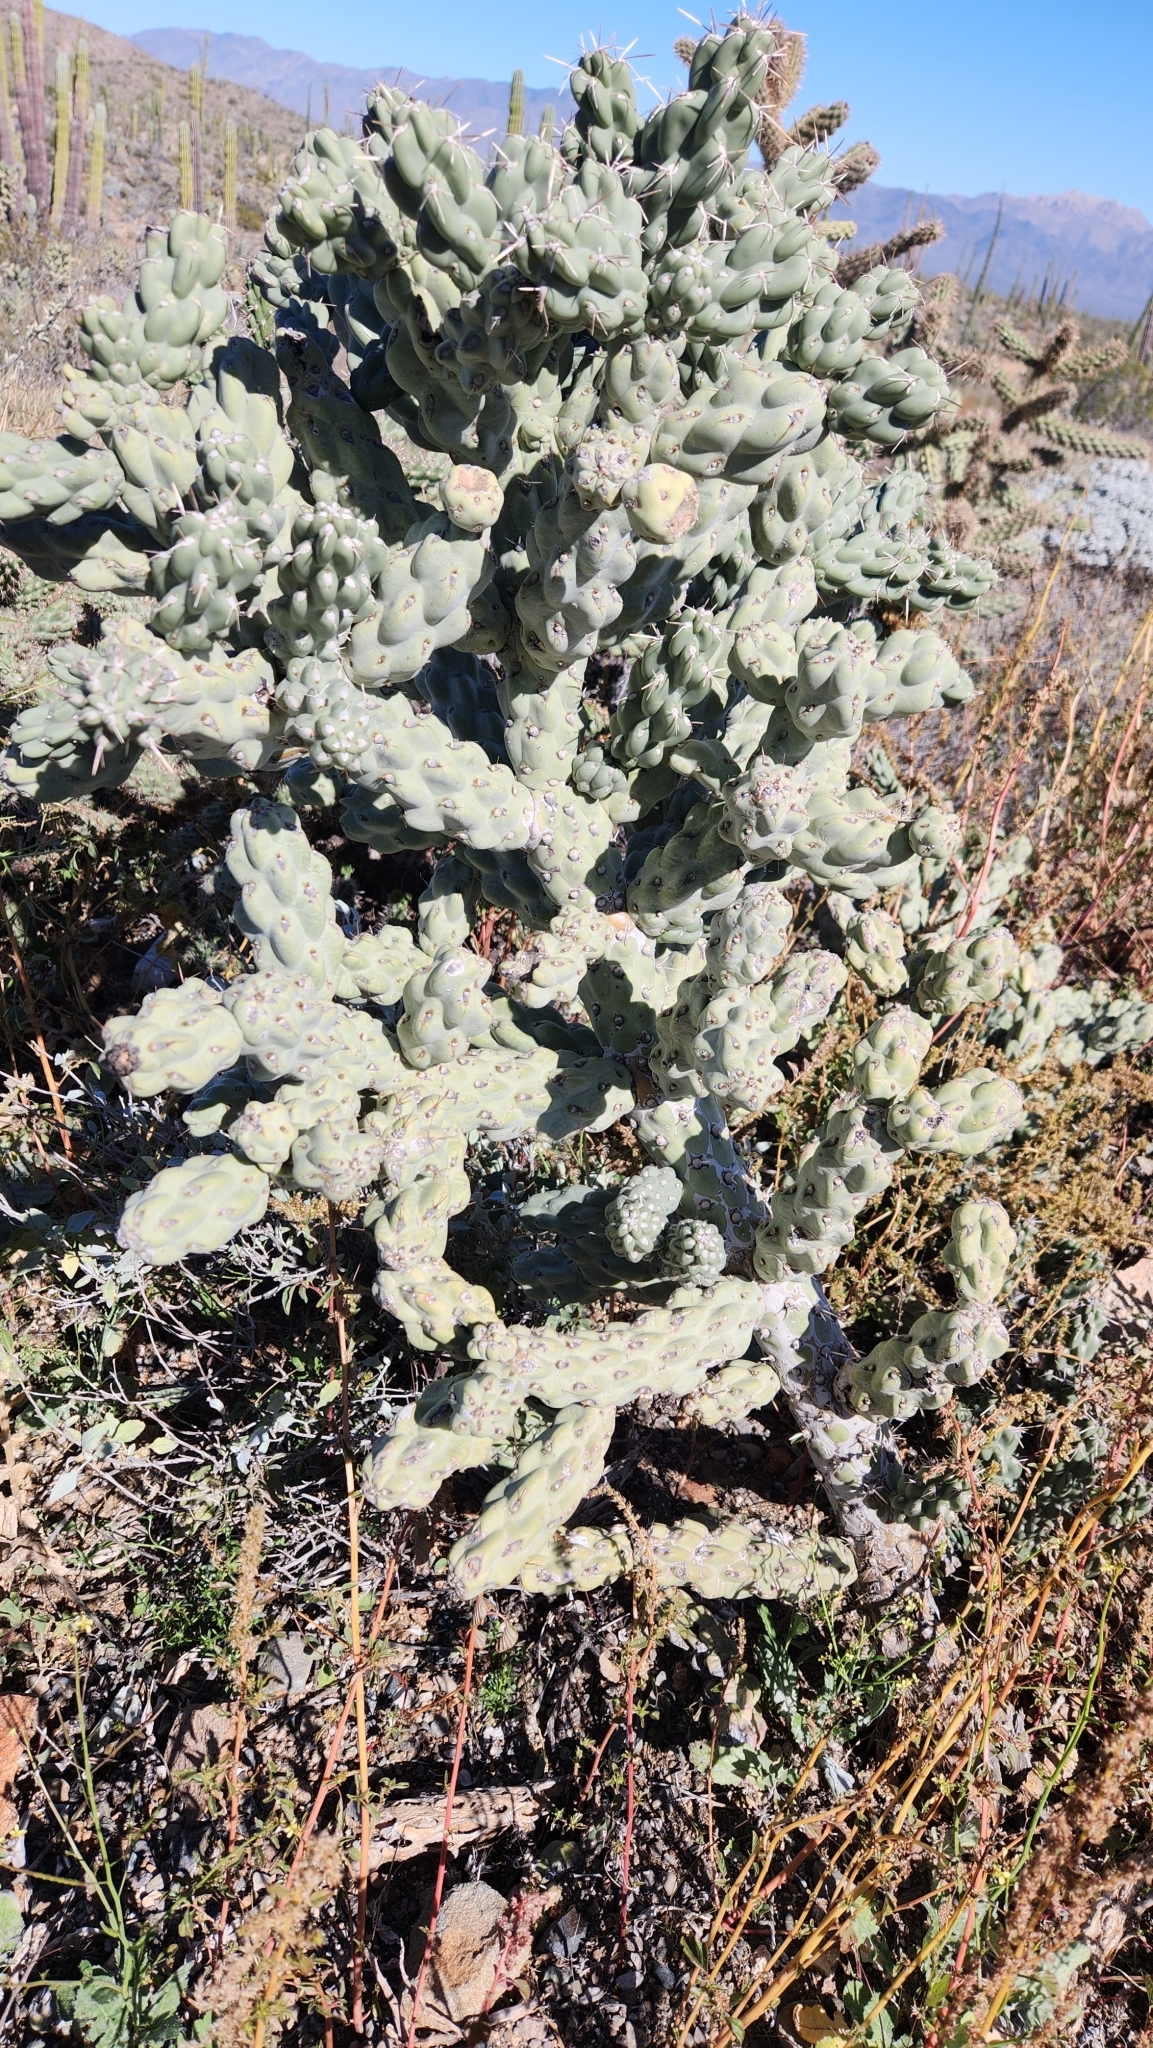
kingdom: Plantae
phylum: Tracheophyta
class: Magnoliopsida
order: Caryophyllales
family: Cactaceae
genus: Cylindropuntia
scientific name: Cylindropuntia cholla
